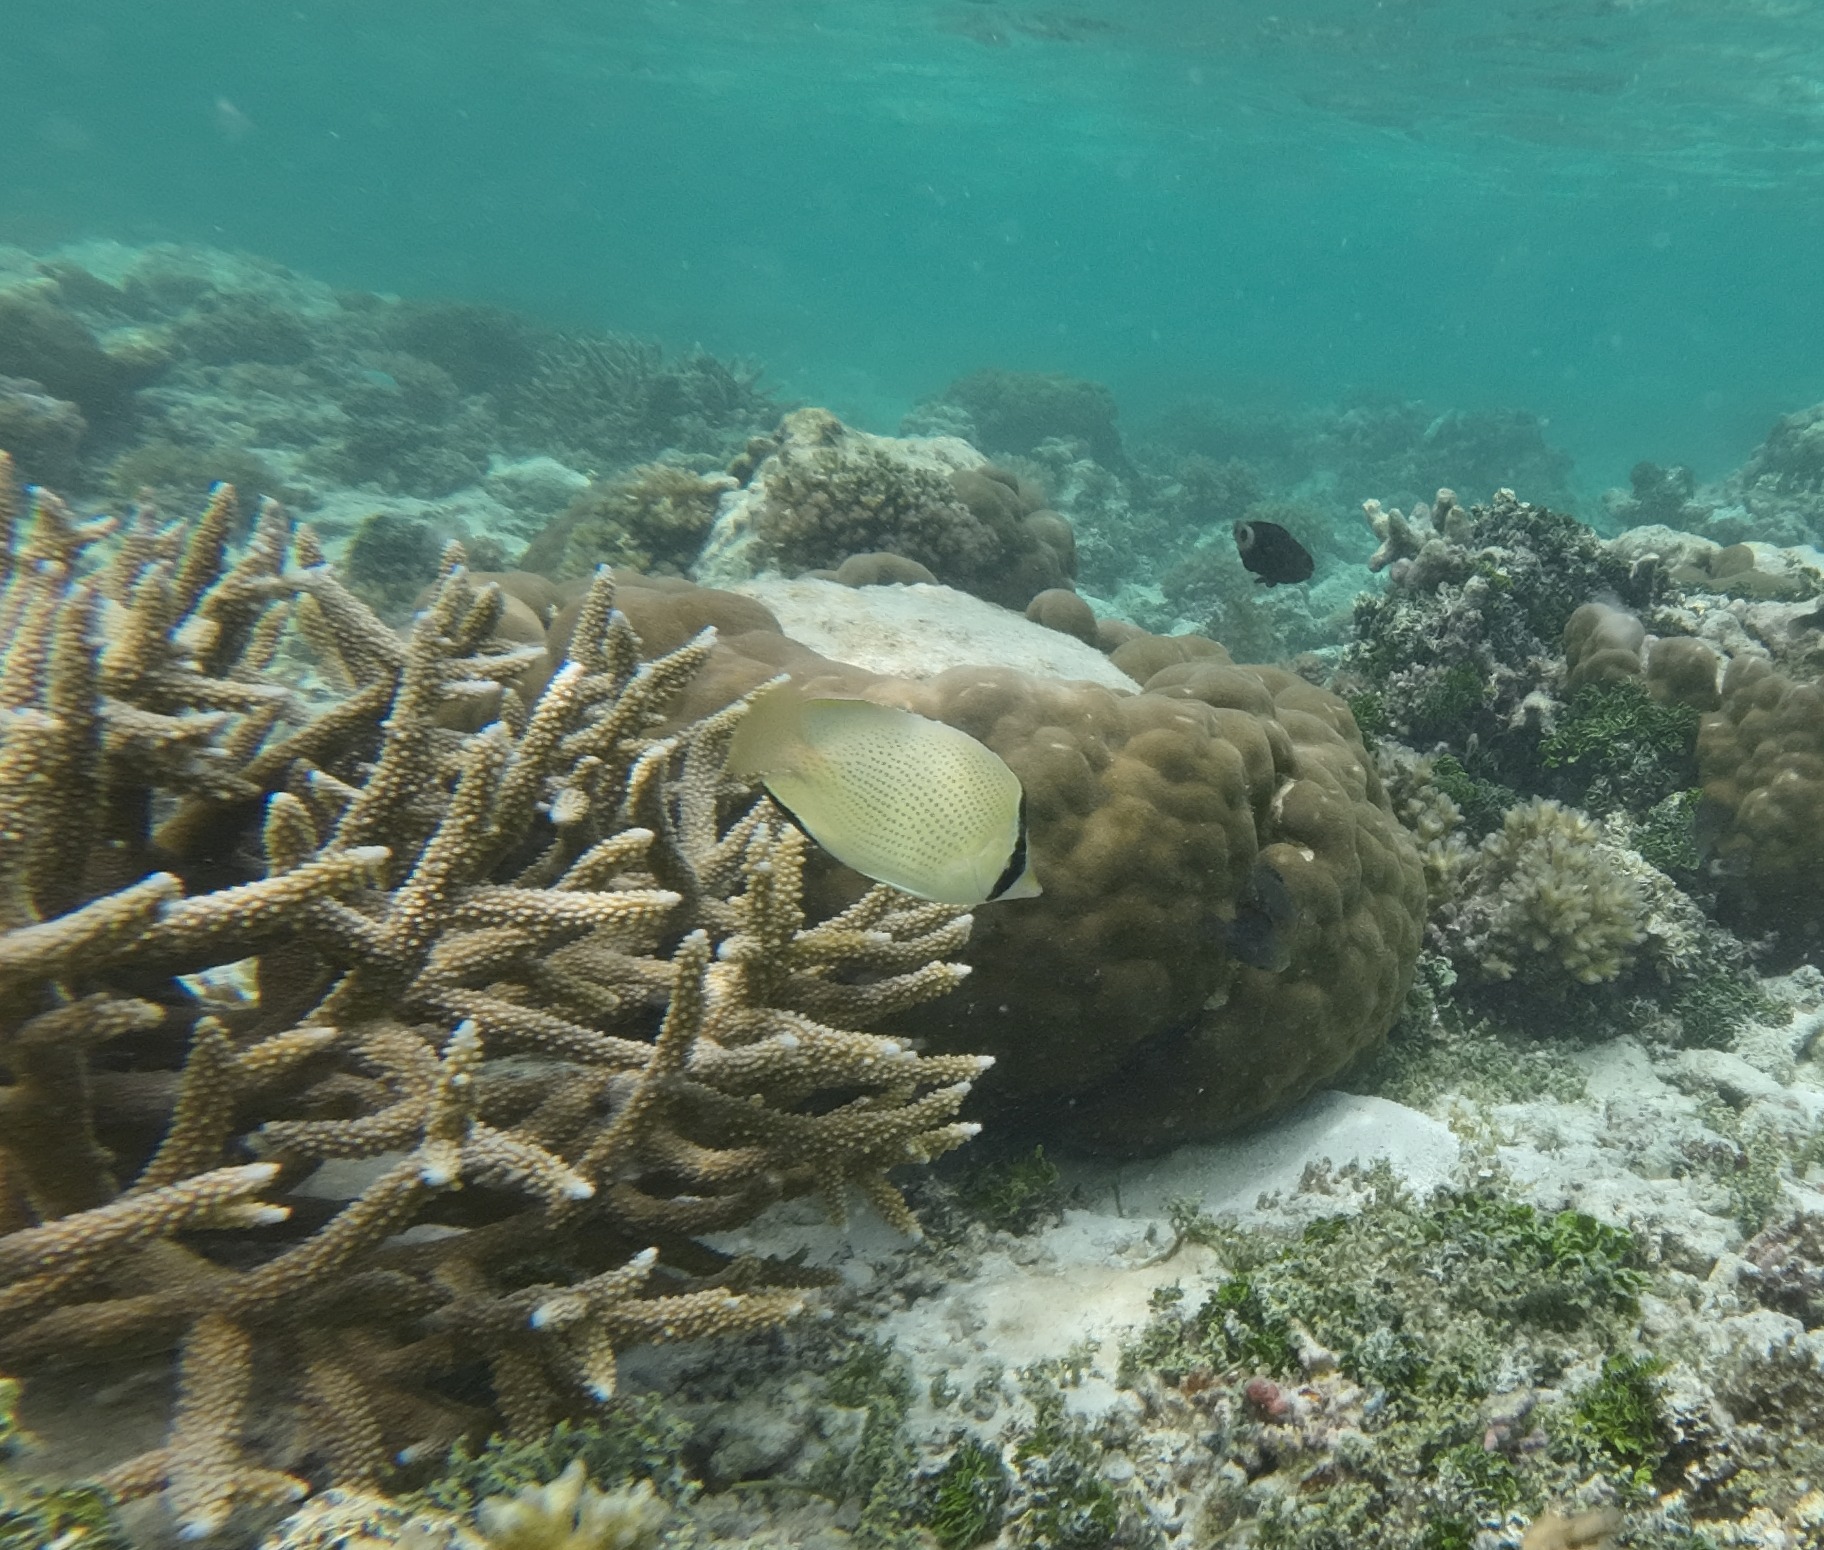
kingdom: Animalia
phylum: Chordata
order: Perciformes
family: Chaetodontidae
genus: Chaetodon
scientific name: Chaetodon citrinellus
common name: Speckled butterflyfish
